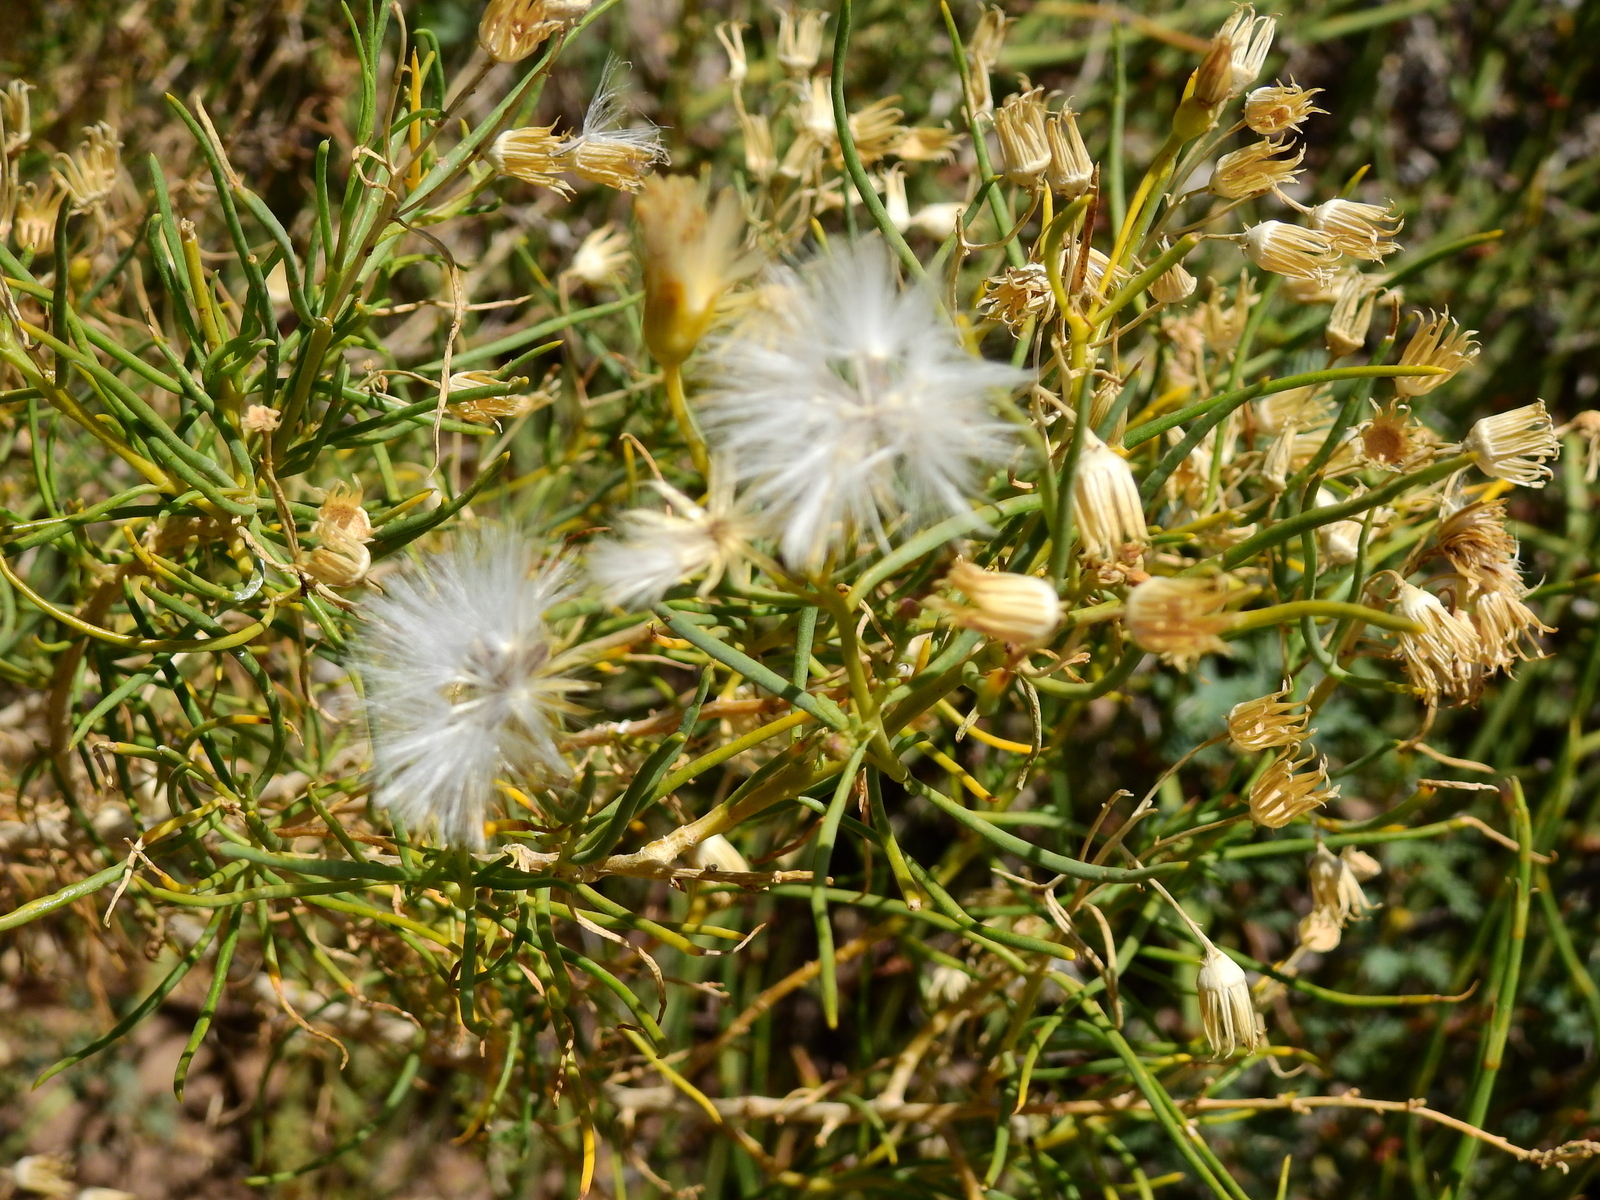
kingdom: Plantae
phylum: Tracheophyta
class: Magnoliopsida
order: Asterales
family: Asteraceae
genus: Senecio
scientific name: Senecio subulatus
